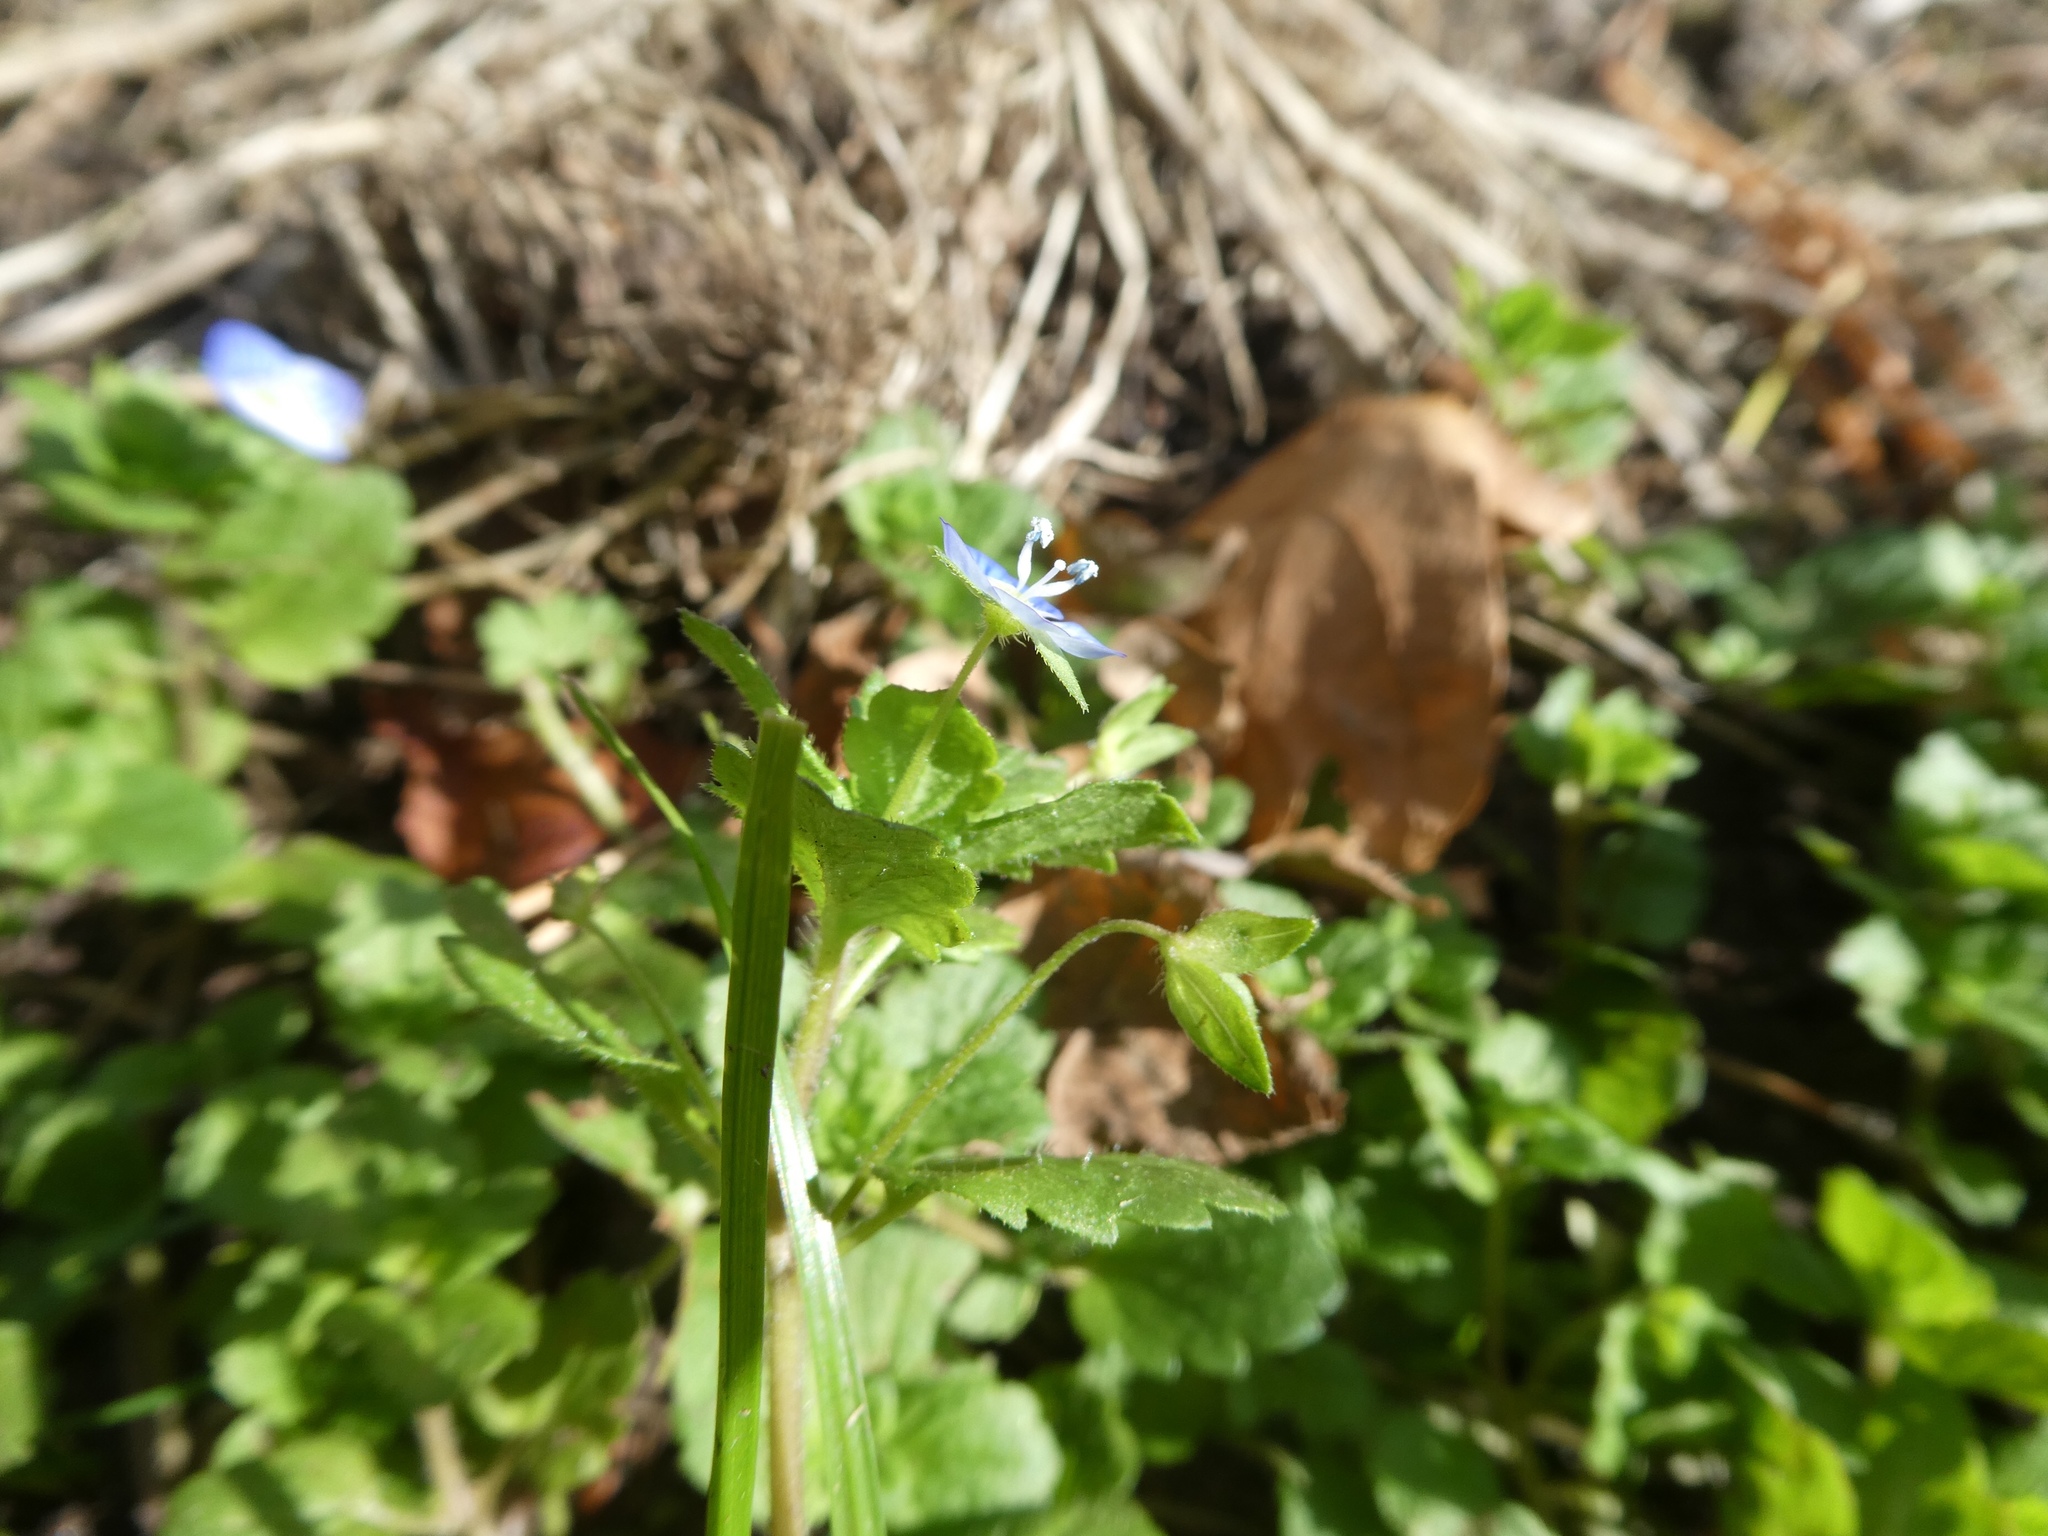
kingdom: Plantae
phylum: Tracheophyta
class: Magnoliopsida
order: Lamiales
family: Plantaginaceae
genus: Veronica
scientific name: Veronica persica
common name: Common field-speedwell
